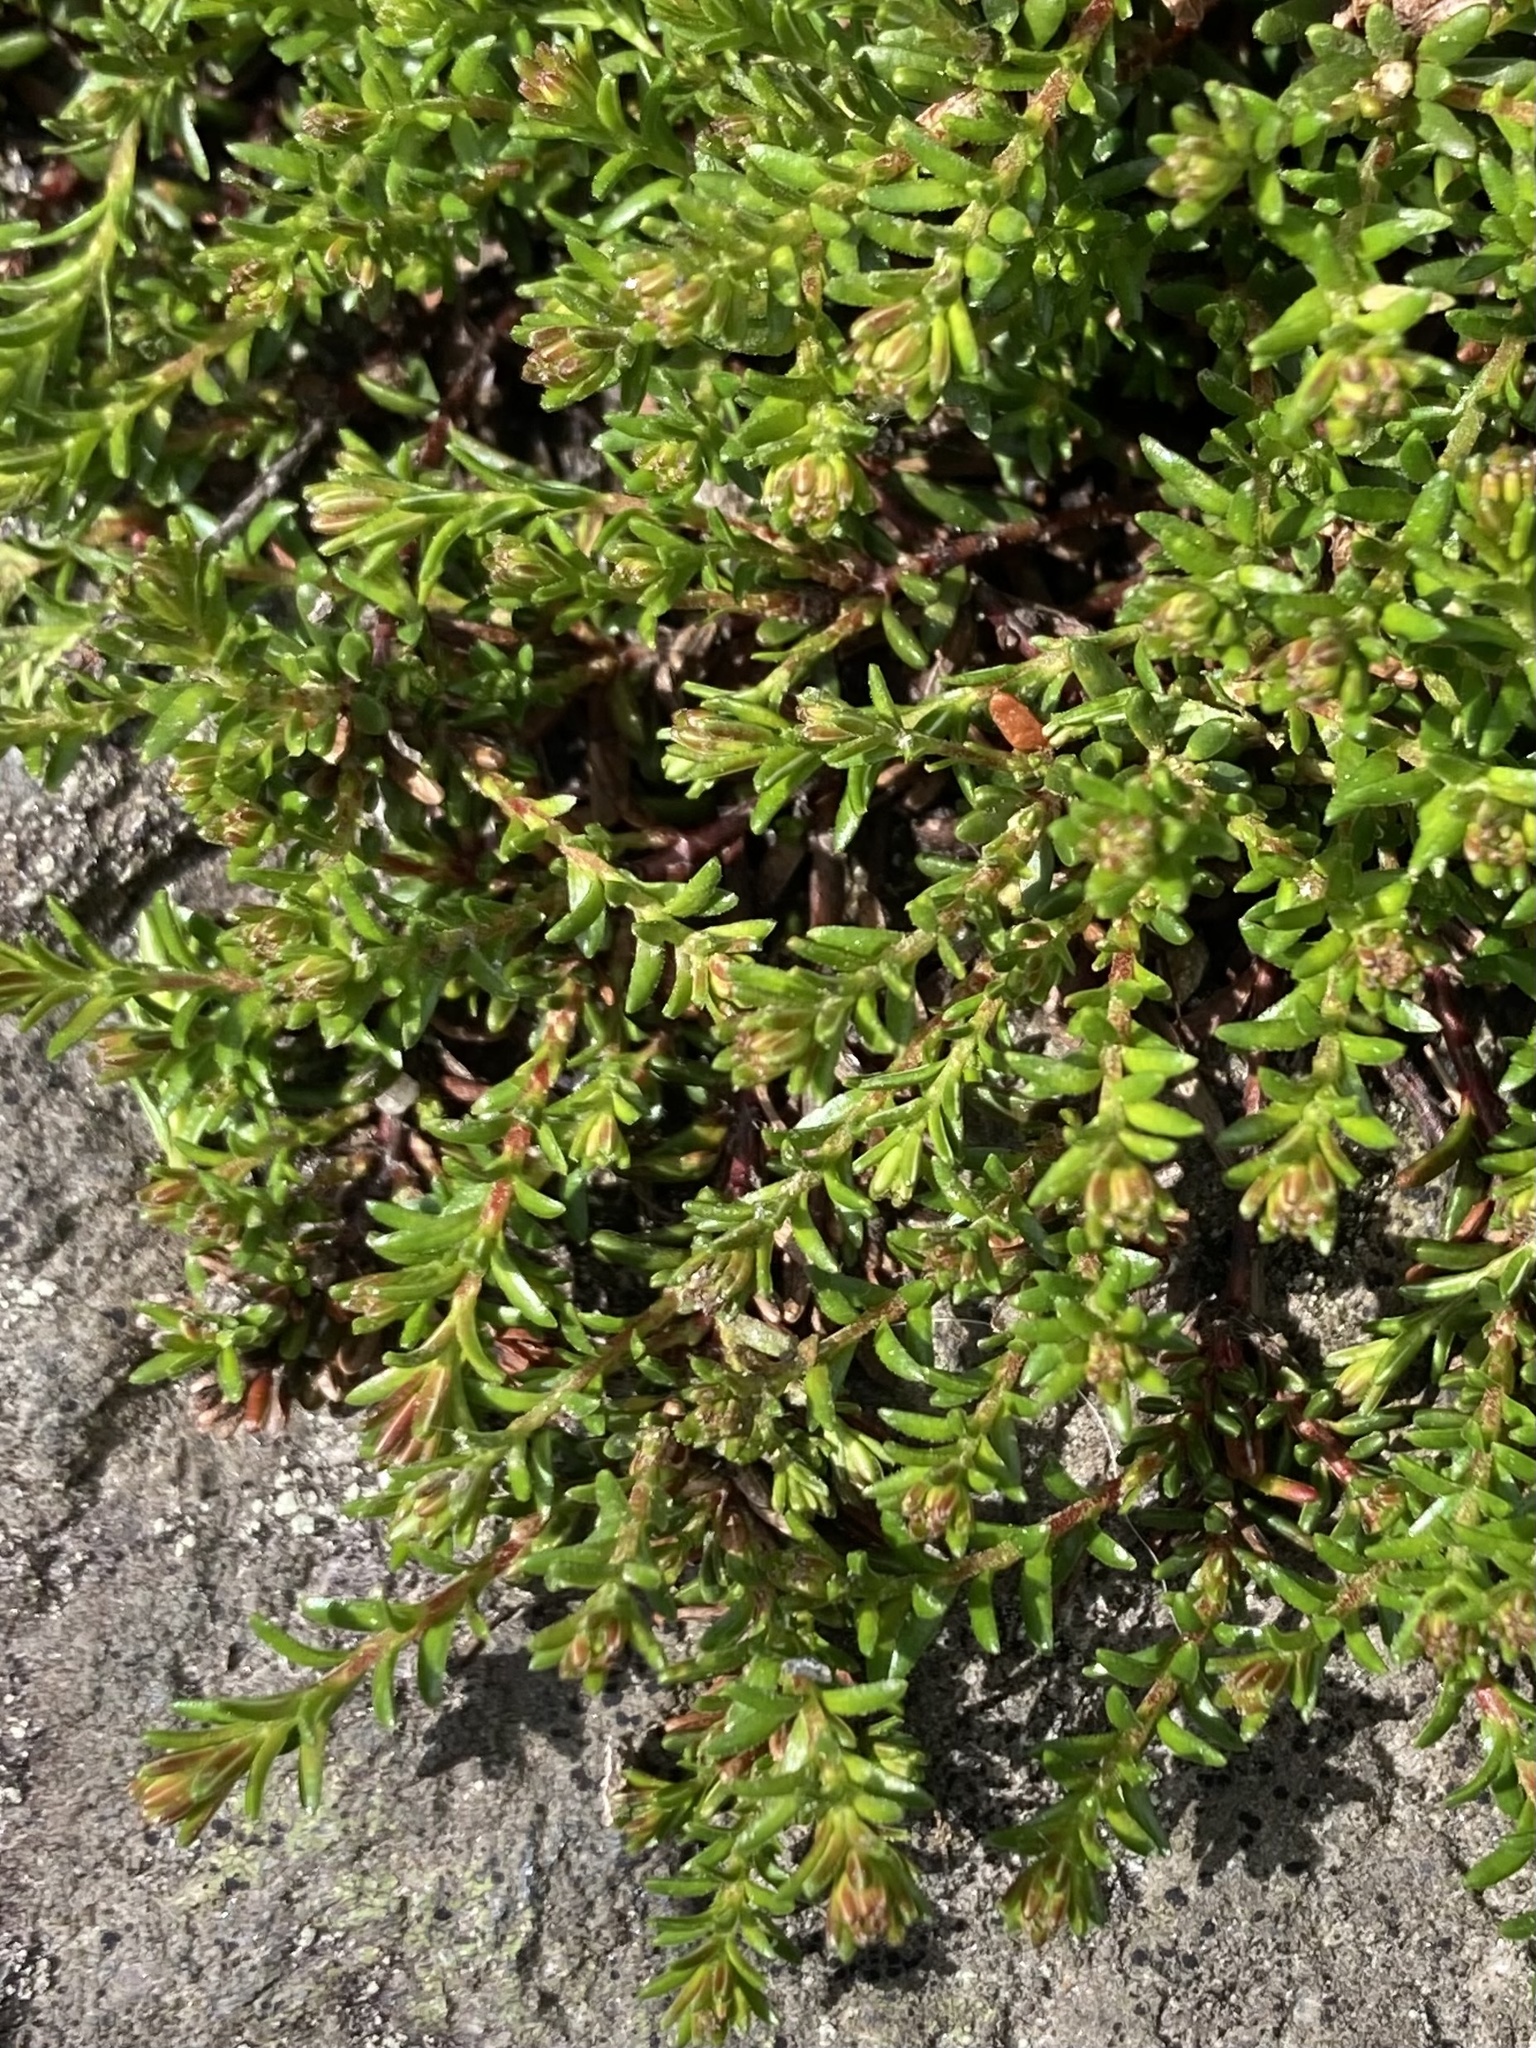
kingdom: Plantae
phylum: Tracheophyta
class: Magnoliopsida
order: Ericales
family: Ericaceae
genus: Empetrum
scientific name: Empetrum nigrum
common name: Black crowberry
